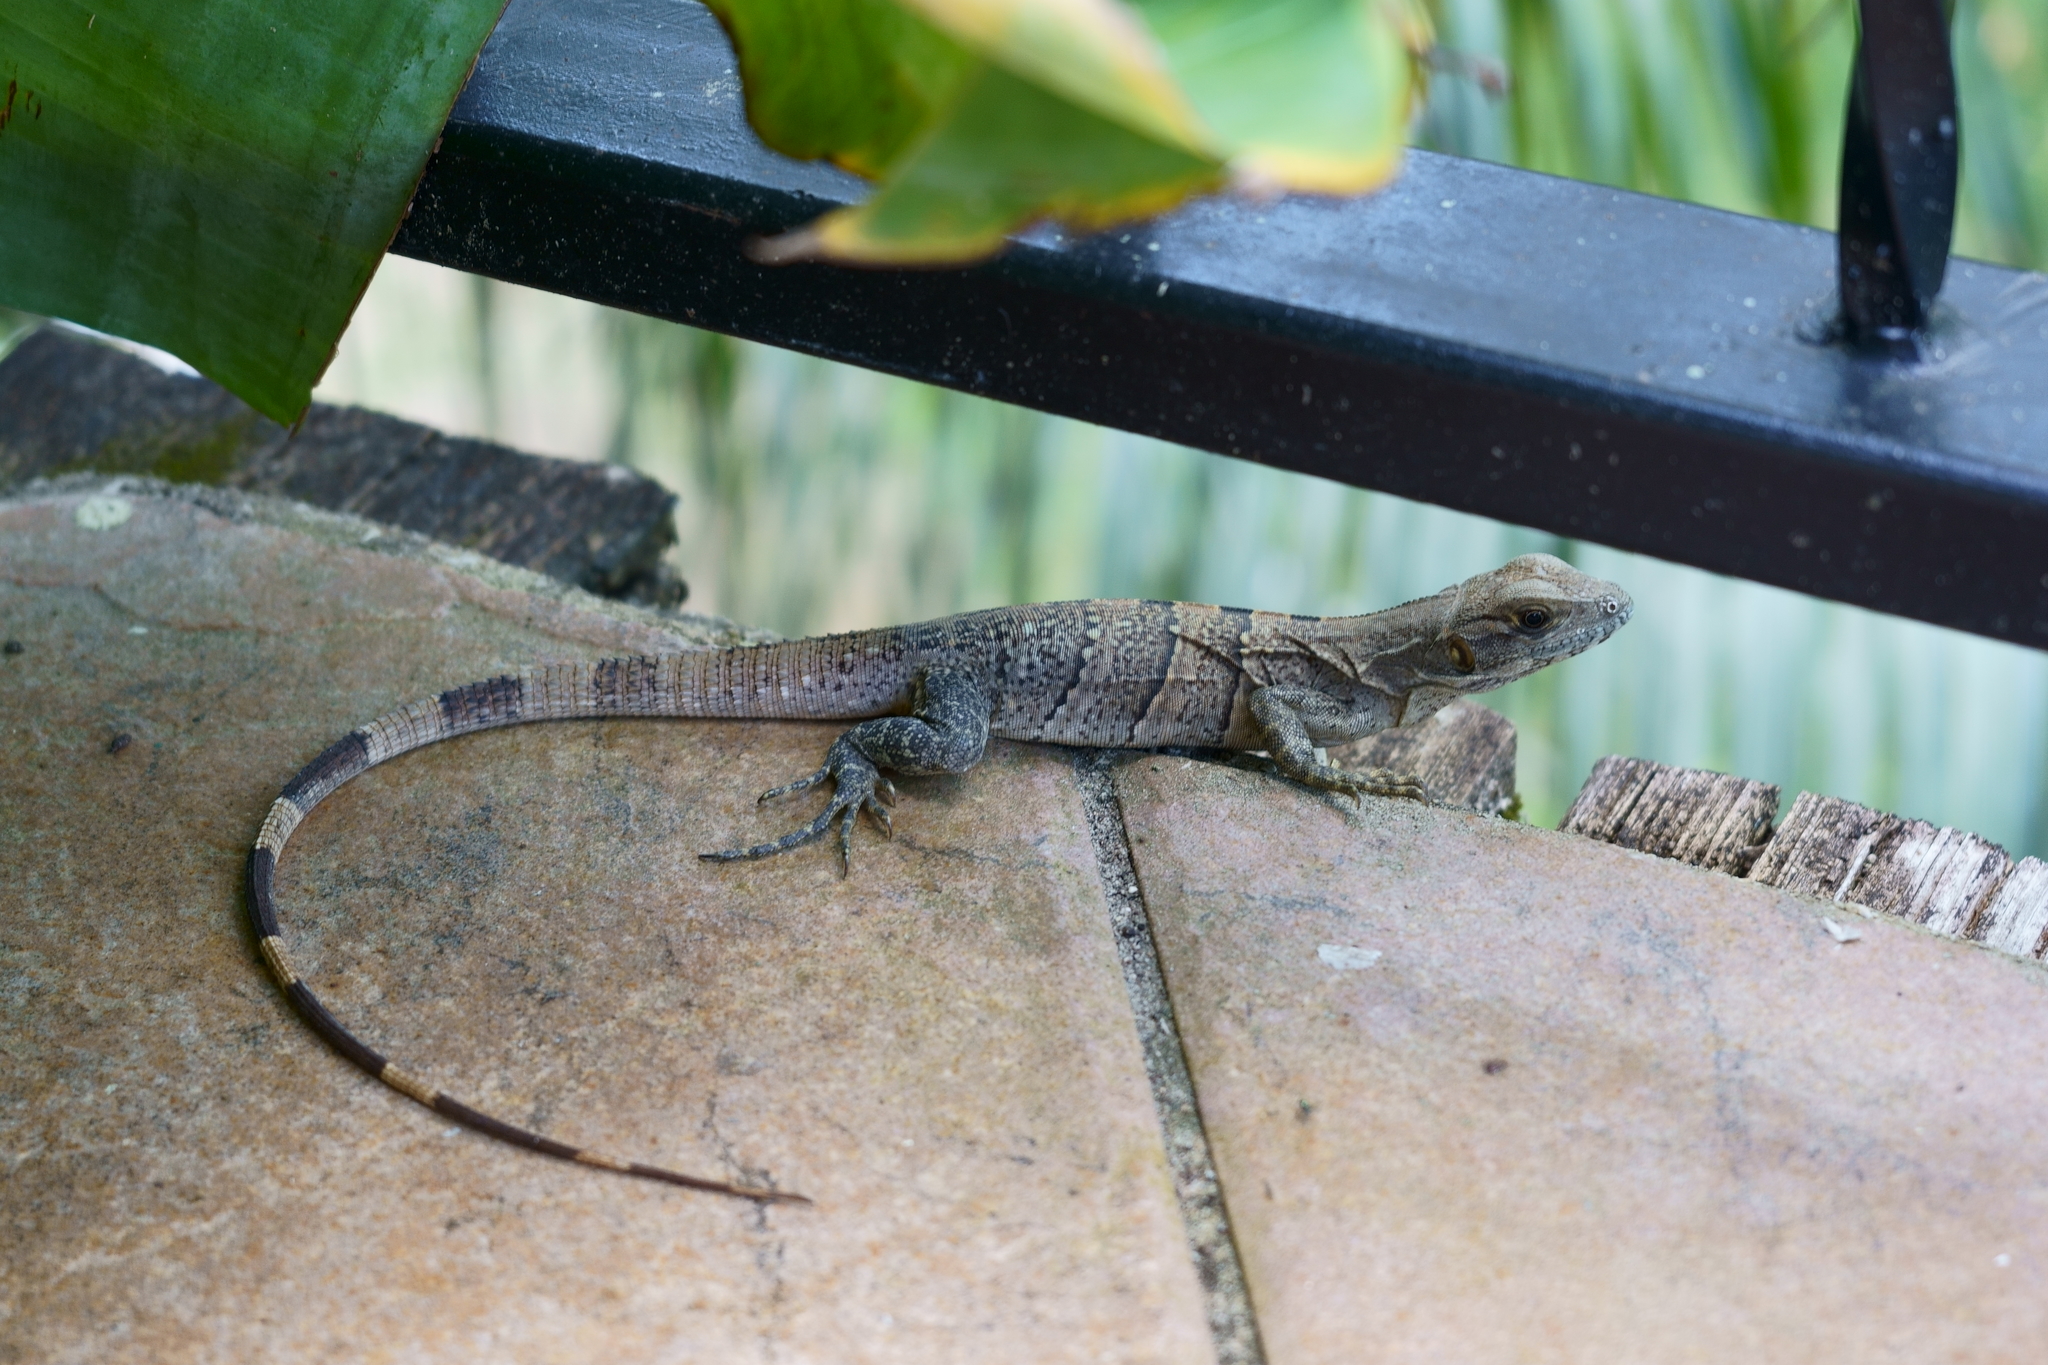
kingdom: Animalia
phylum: Chordata
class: Squamata
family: Iguanidae
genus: Ctenosaura
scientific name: Ctenosaura similis
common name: Black spiny-tailed iguana
